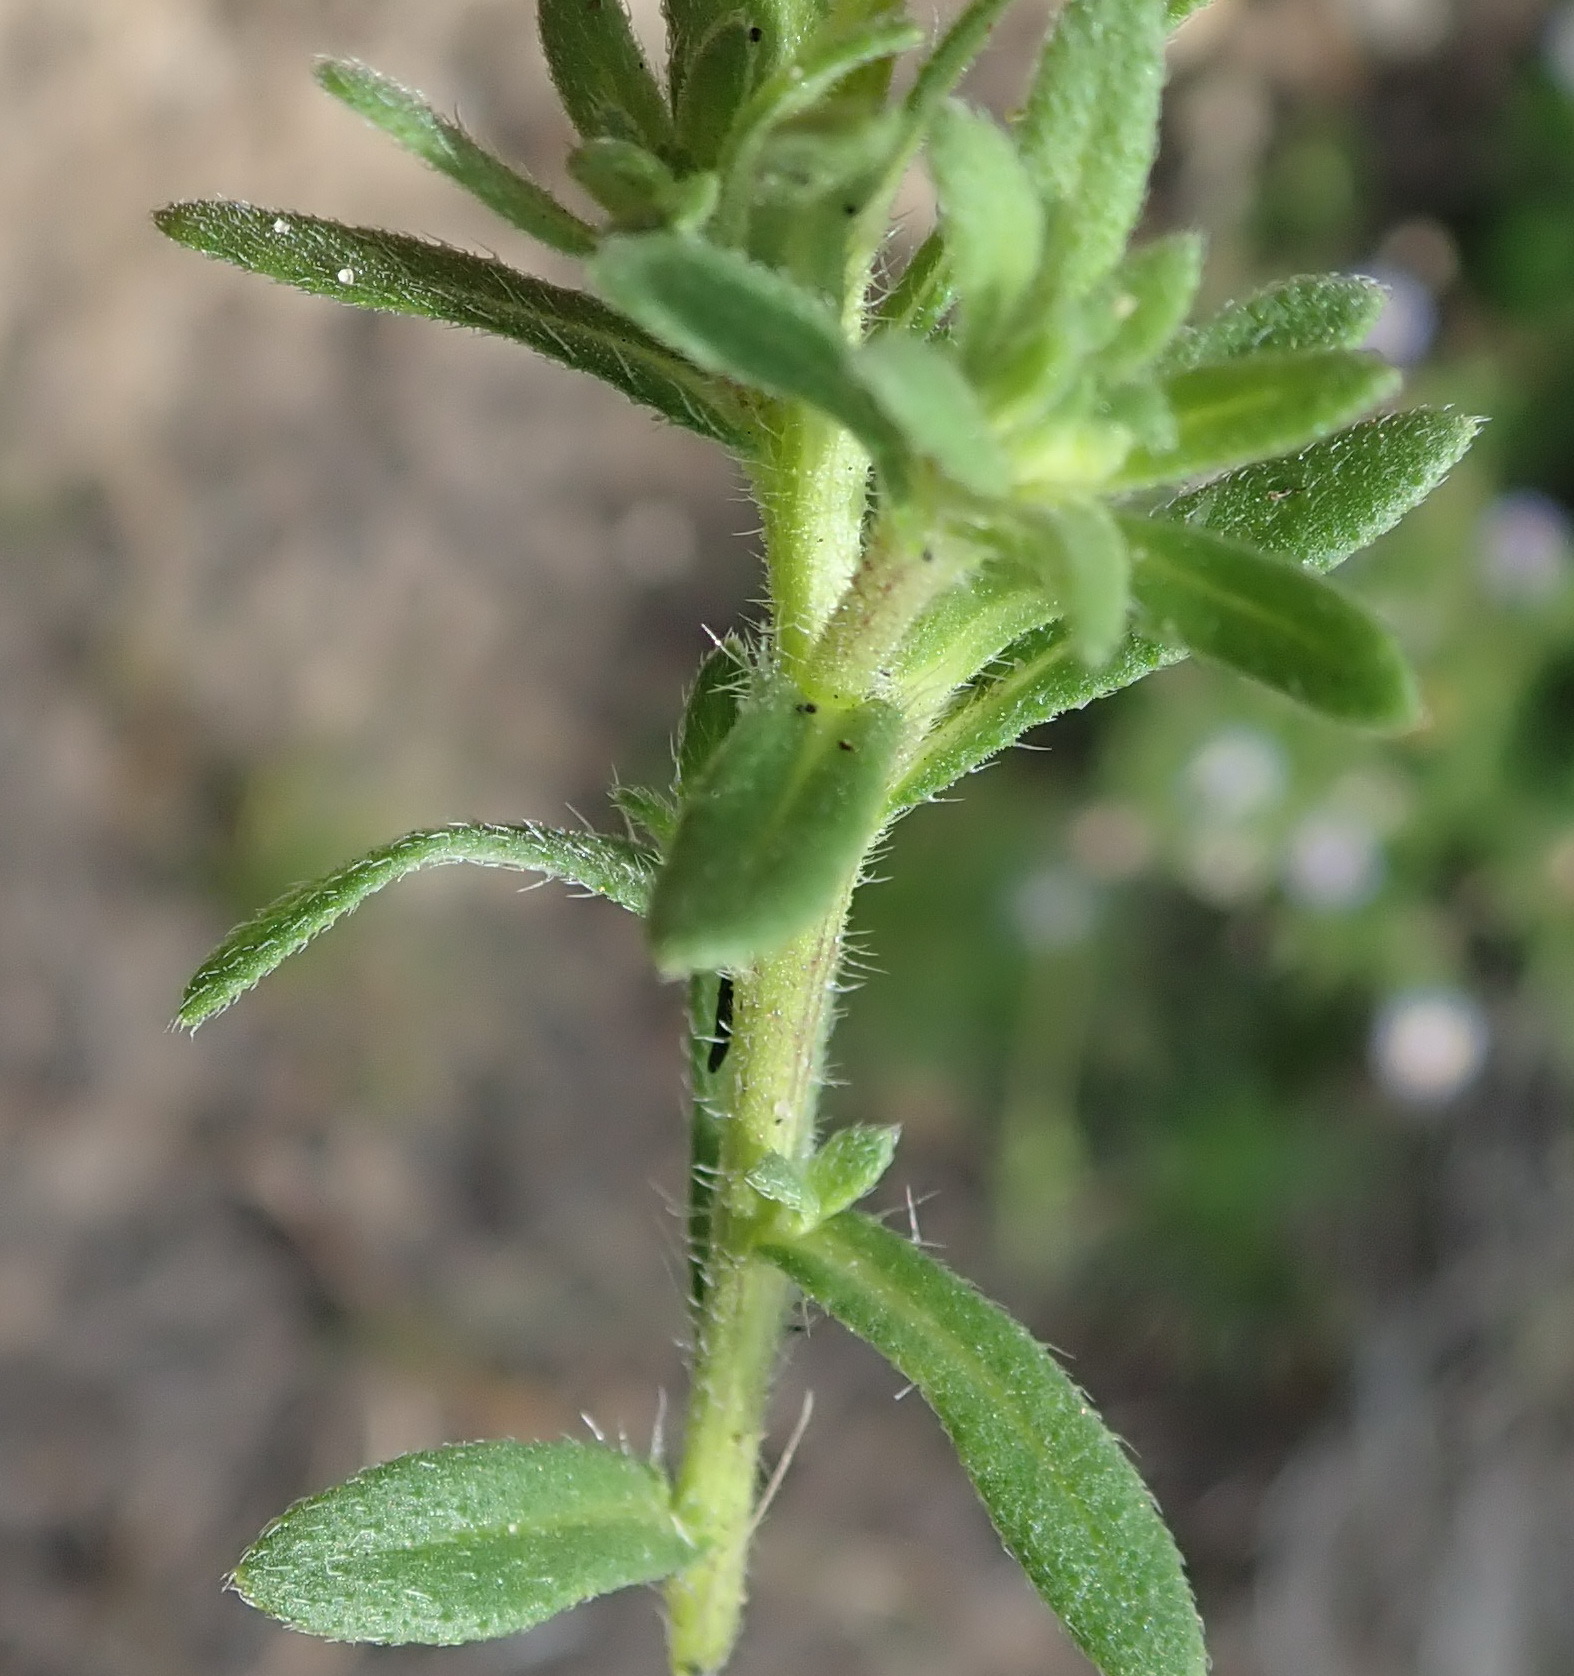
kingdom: Plantae
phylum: Tracheophyta
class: Magnoliopsida
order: Asterales
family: Asteraceae
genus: Felicia
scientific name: Felicia amoena
